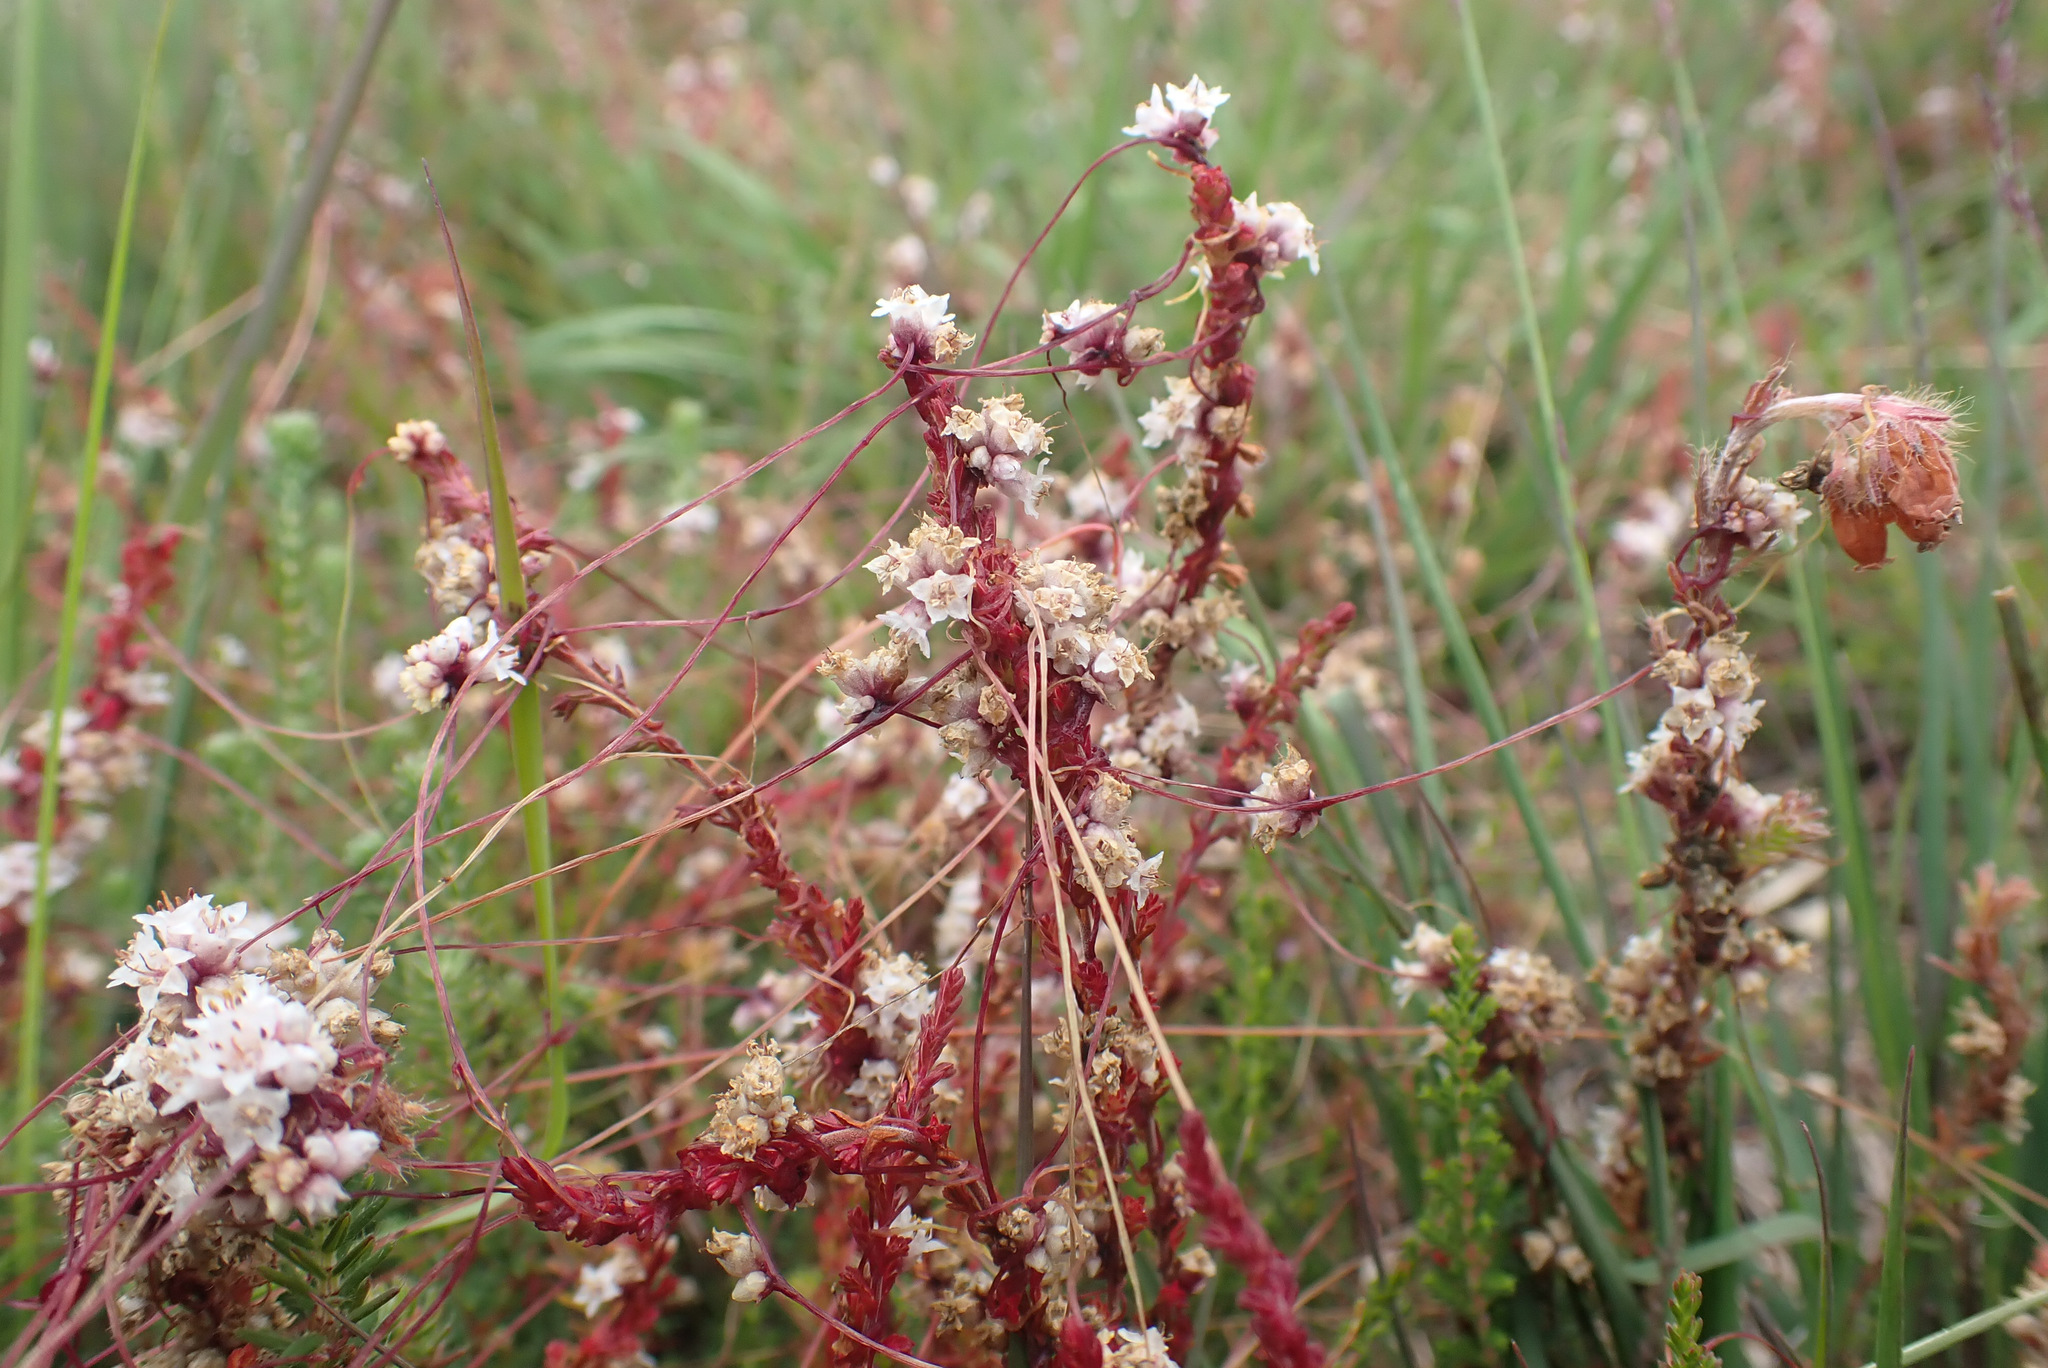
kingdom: Plantae
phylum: Tracheophyta
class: Magnoliopsida
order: Solanales
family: Convolvulaceae
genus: Cuscuta
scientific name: Cuscuta epithymum
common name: Clover dodder
